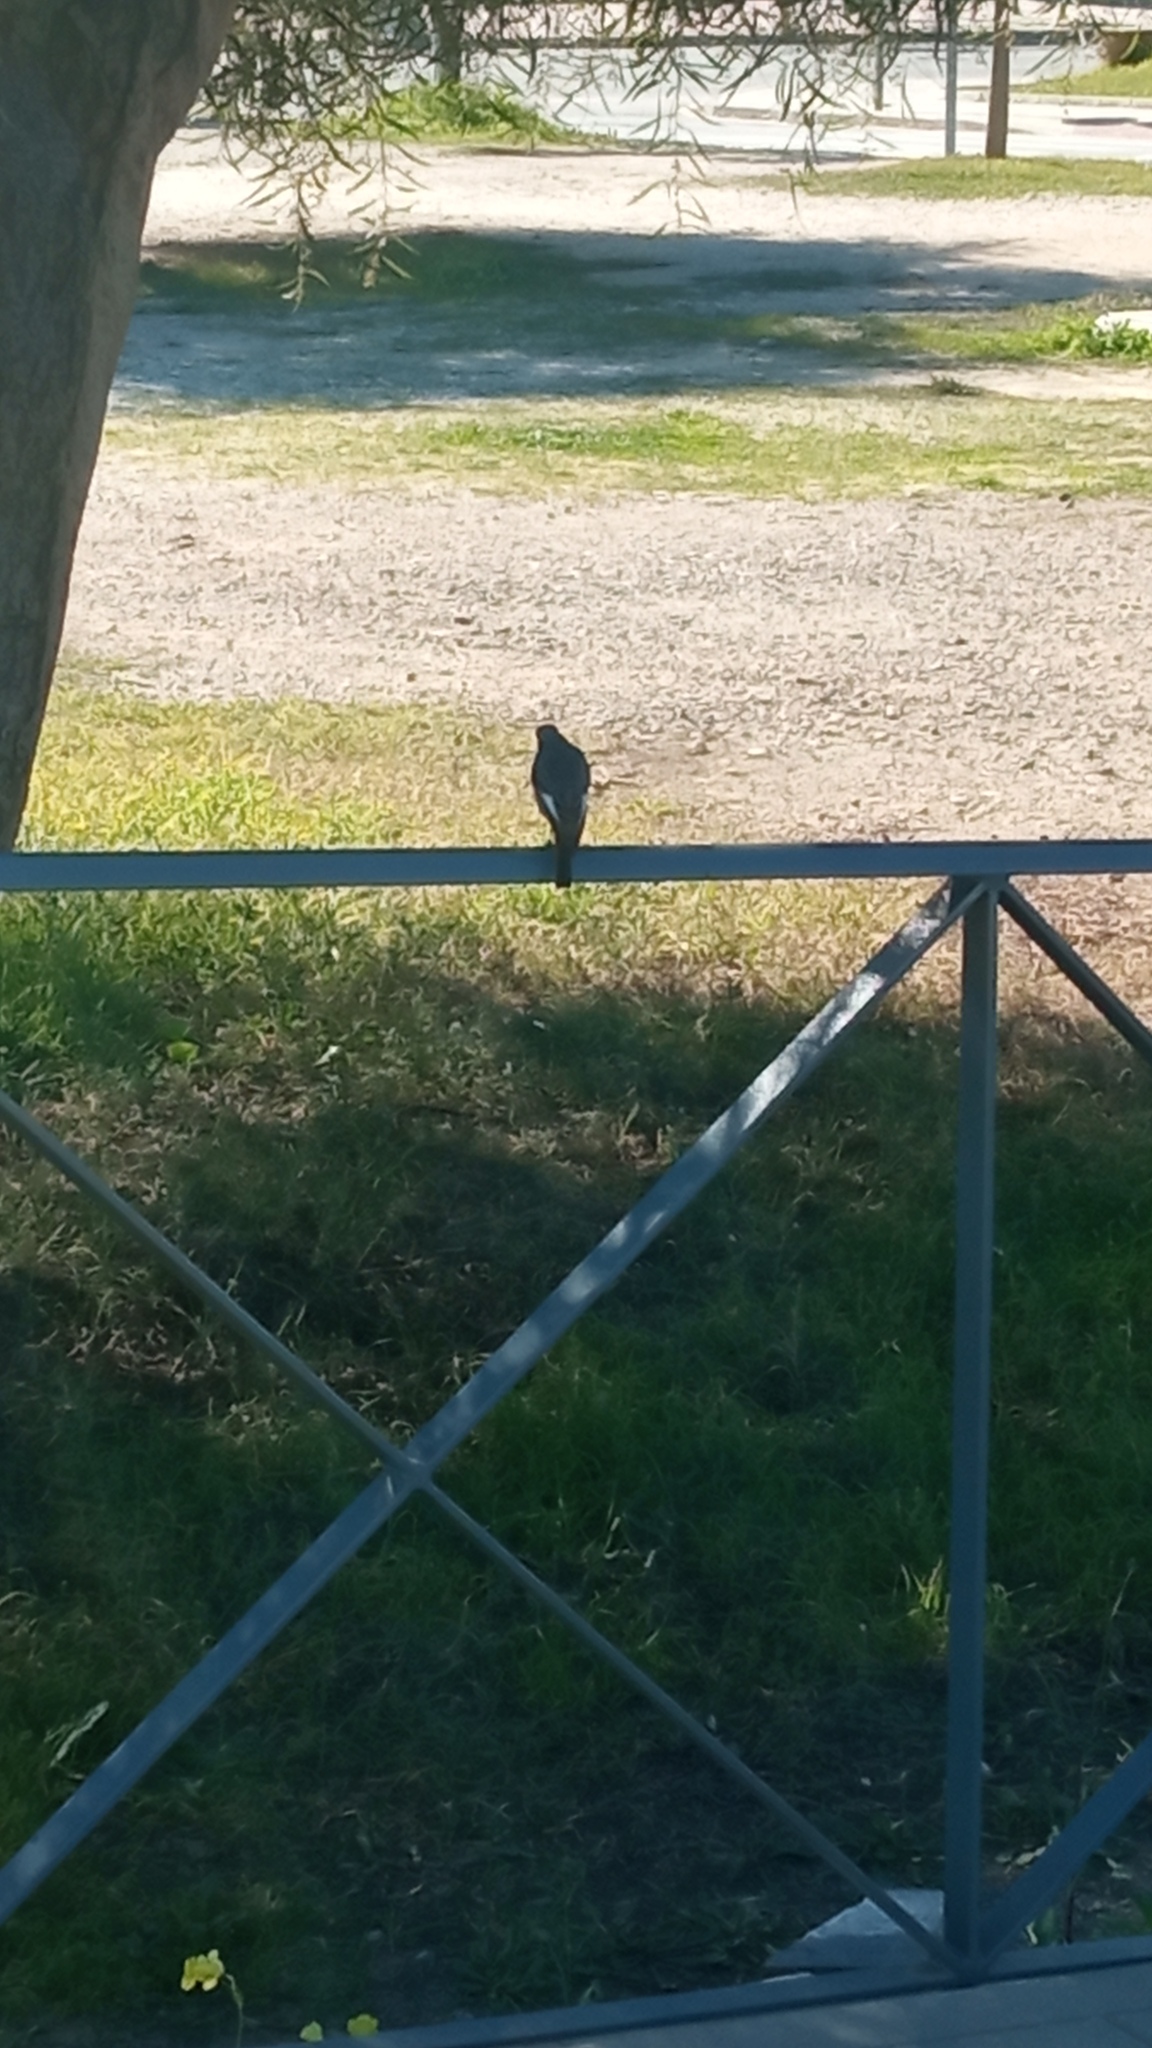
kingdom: Animalia
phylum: Chordata
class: Aves
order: Passeriformes
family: Muscicapidae
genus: Phoenicurus
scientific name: Phoenicurus ochruros
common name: Black redstart
